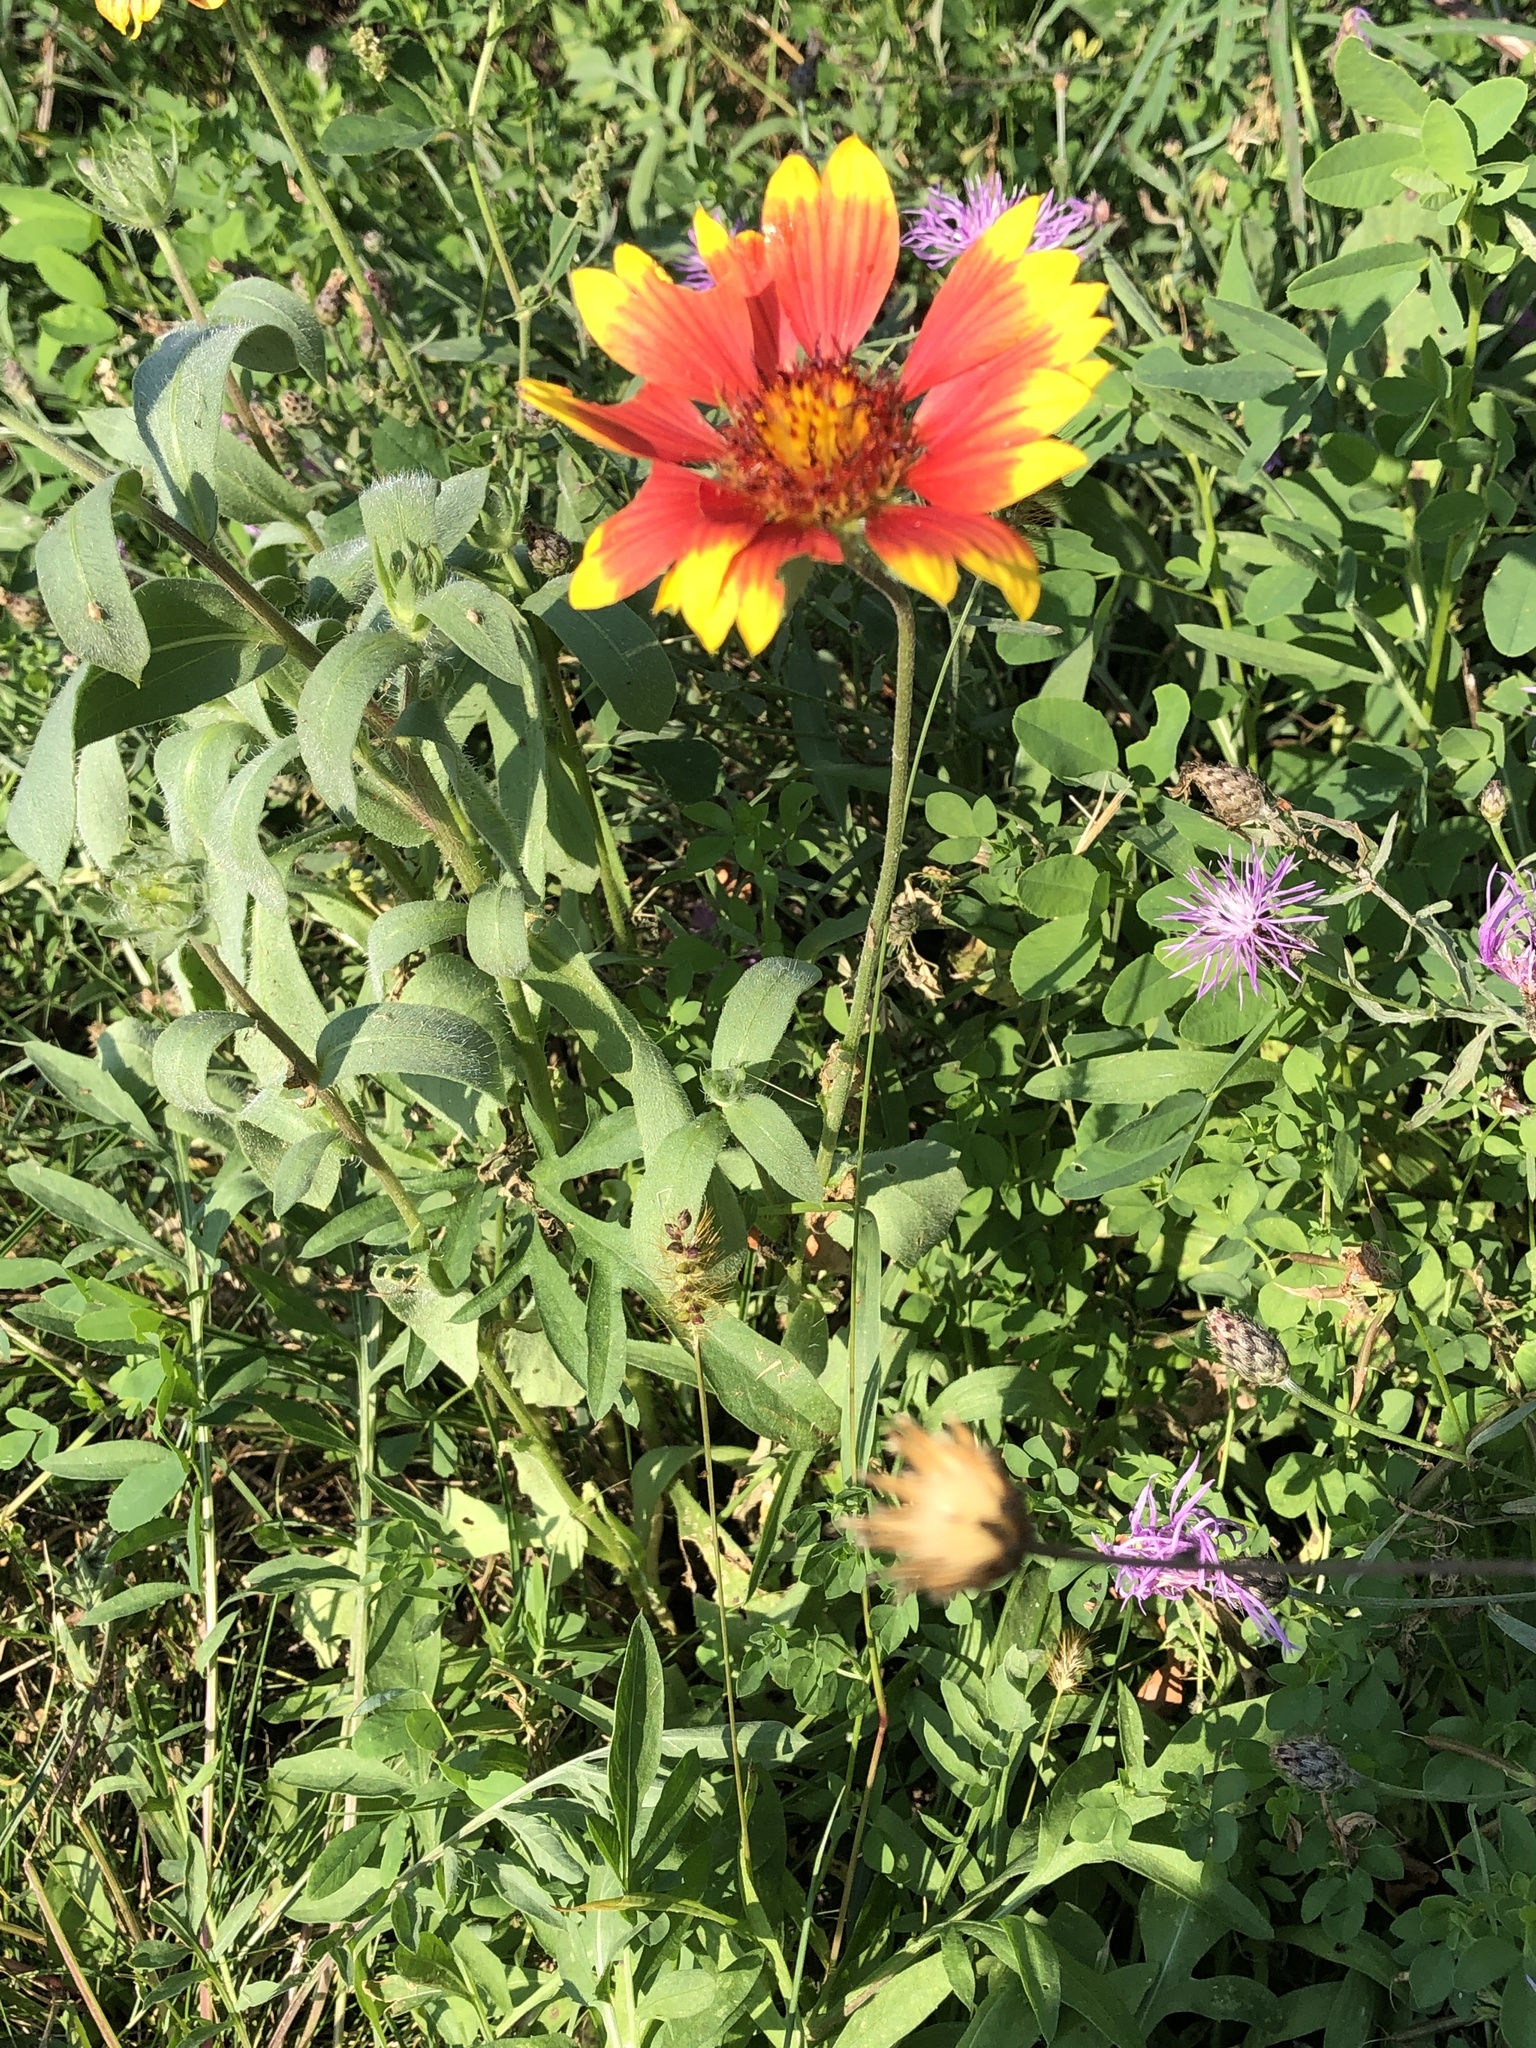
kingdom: Plantae
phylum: Tracheophyta
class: Magnoliopsida
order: Asterales
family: Asteraceae
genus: Gaillardia
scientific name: Gaillardia pulchella
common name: Firewheel
